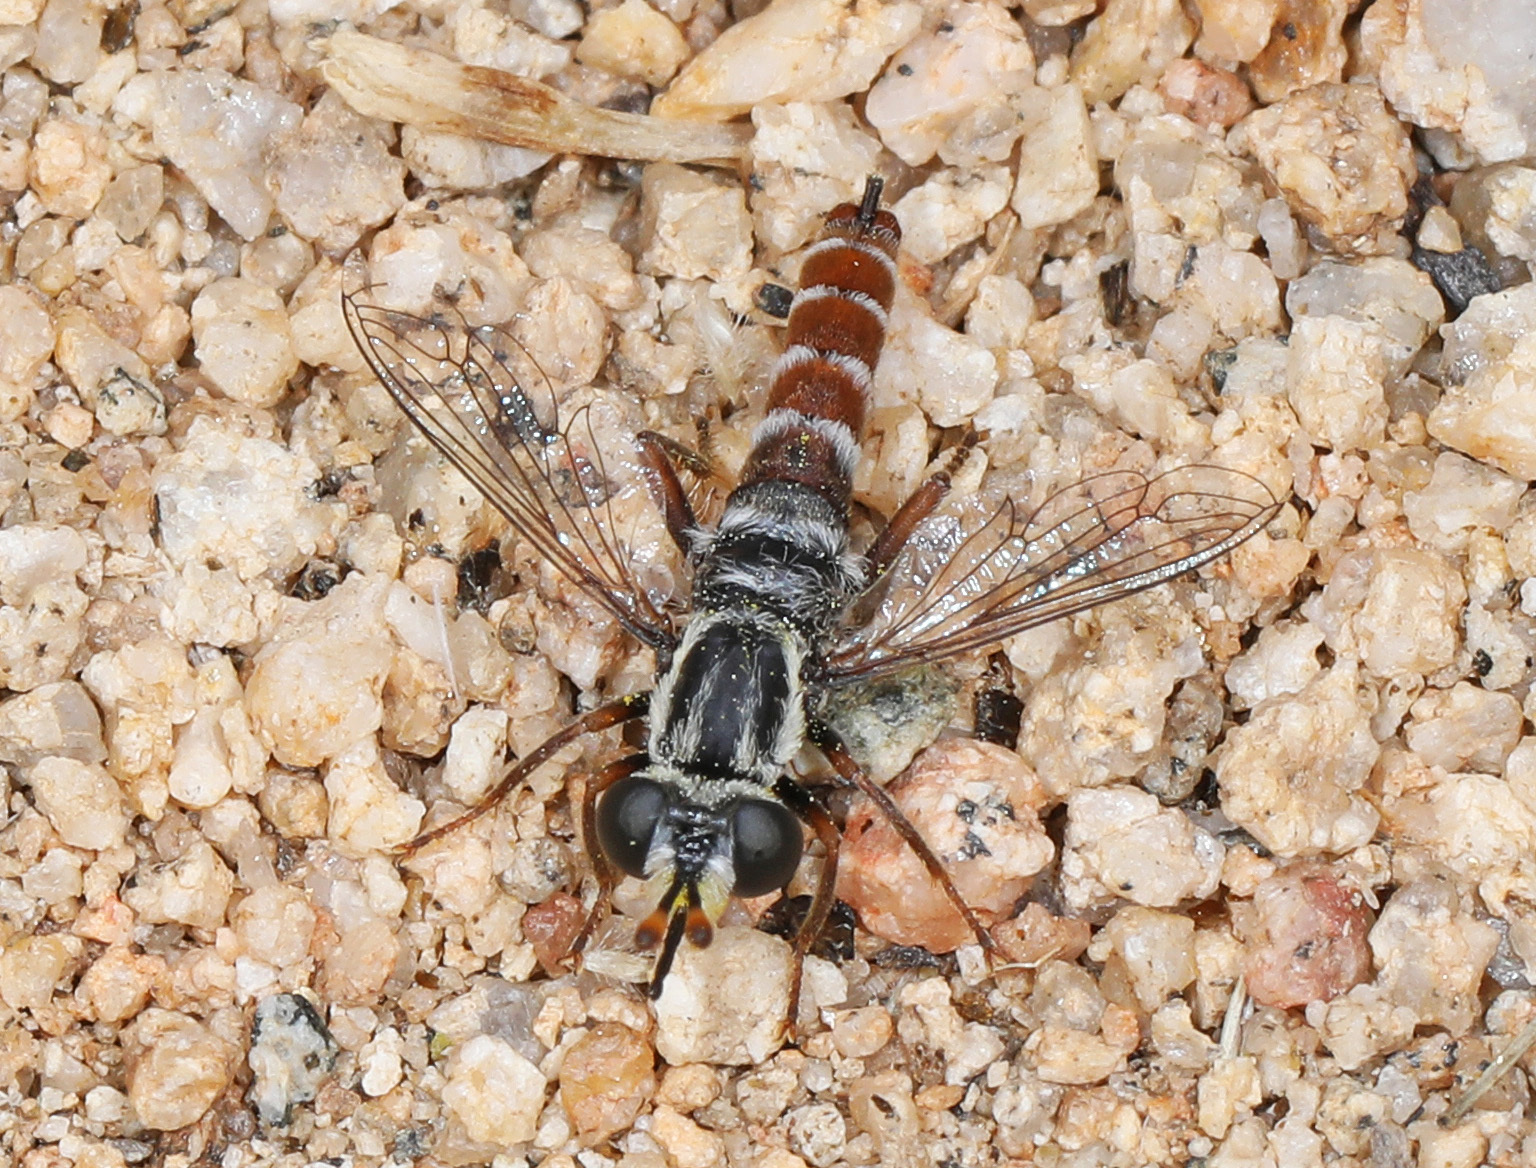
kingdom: Animalia
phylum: Arthropoda
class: Insecta
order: Diptera
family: Mydidae
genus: Pseudonomoneura
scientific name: Pseudonomoneura micheneri
